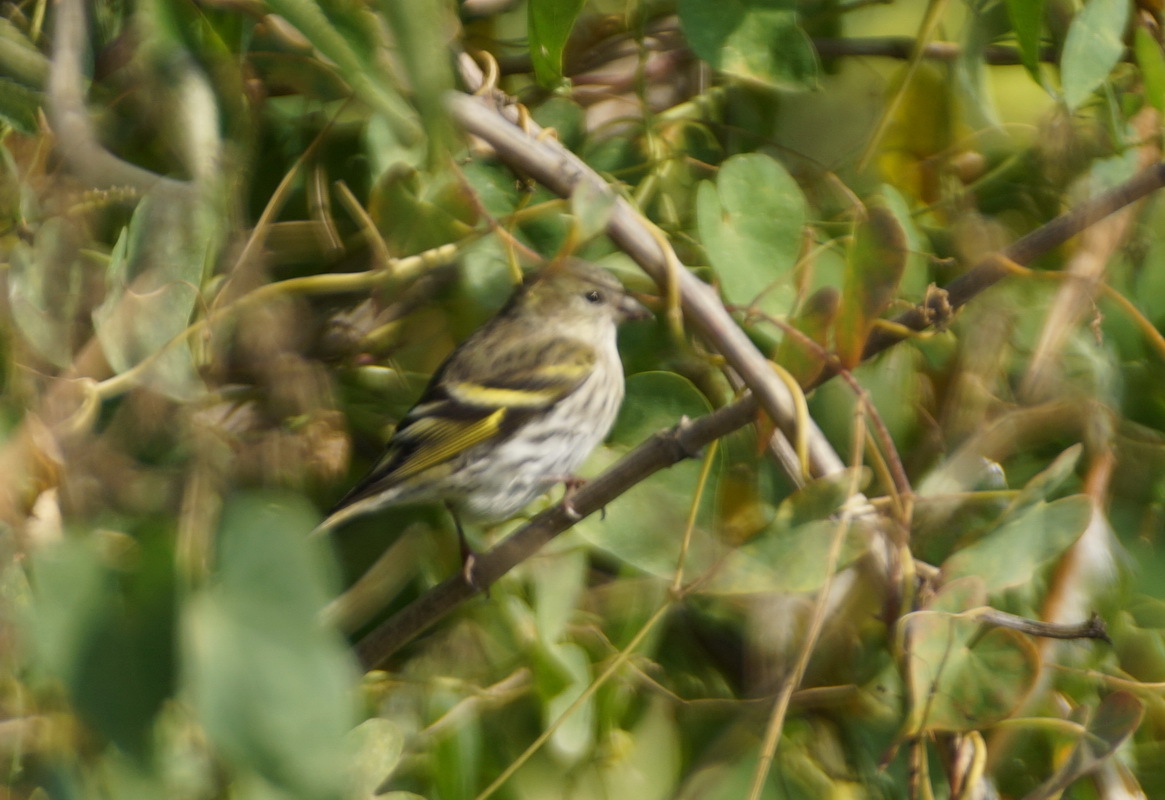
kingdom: Animalia
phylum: Chordata
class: Aves
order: Passeriformes
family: Fringillidae
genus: Spinus
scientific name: Spinus spinus
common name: Eurasian siskin
